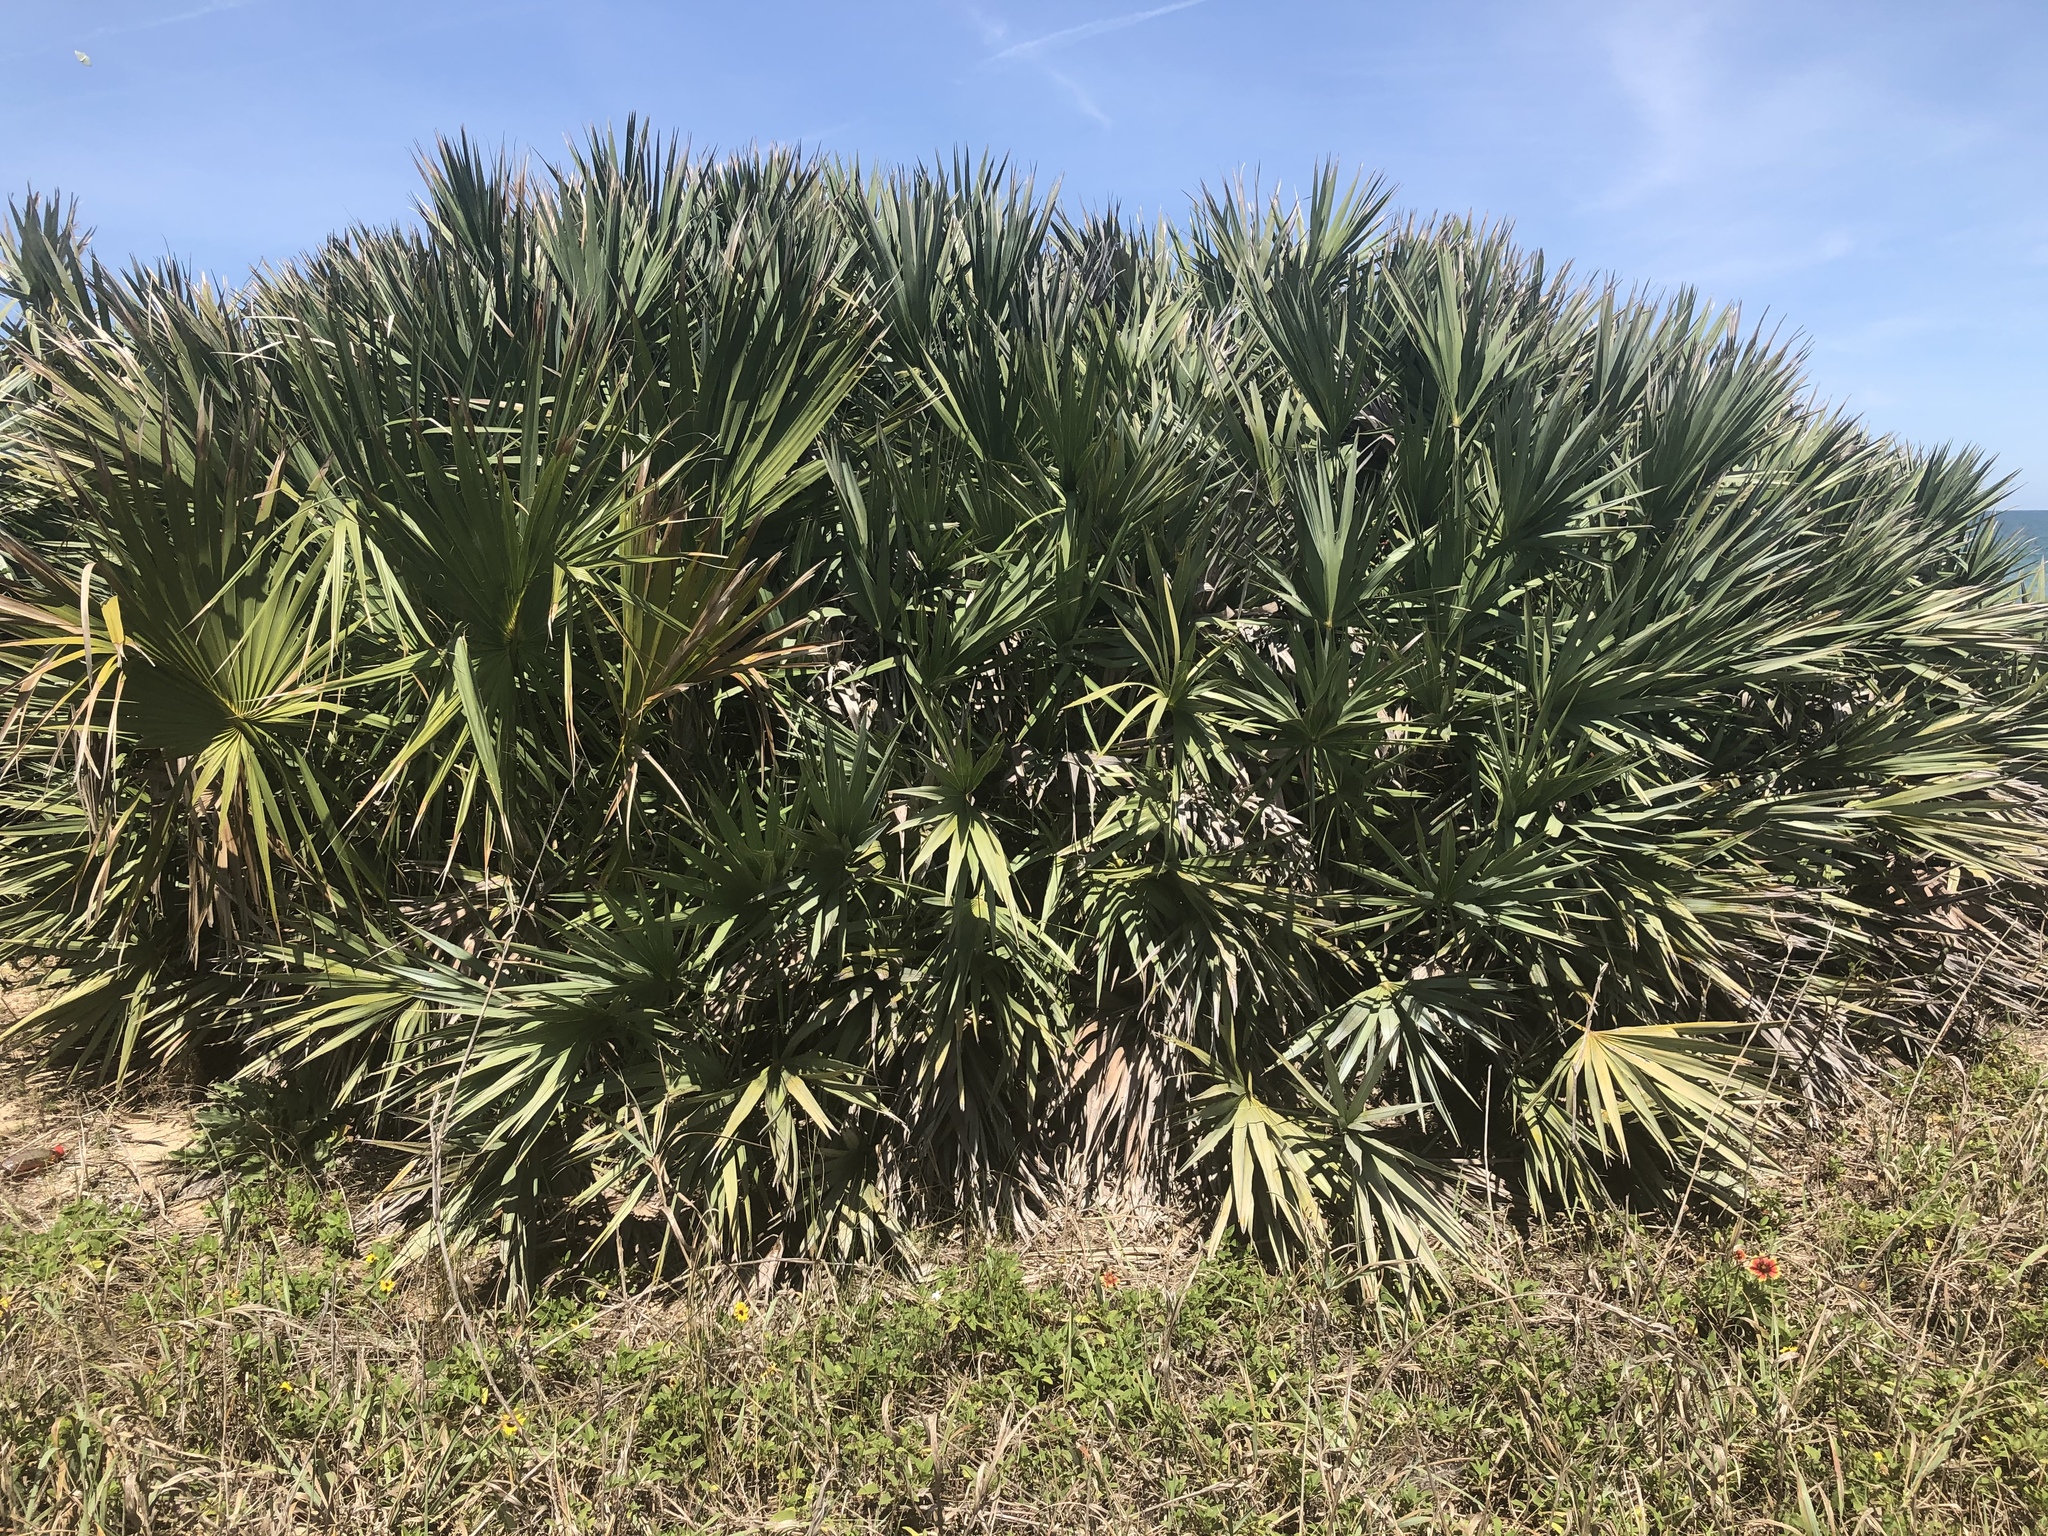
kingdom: Plantae
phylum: Tracheophyta
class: Liliopsida
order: Arecales
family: Arecaceae
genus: Serenoa
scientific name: Serenoa repens
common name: Saw-palmetto
